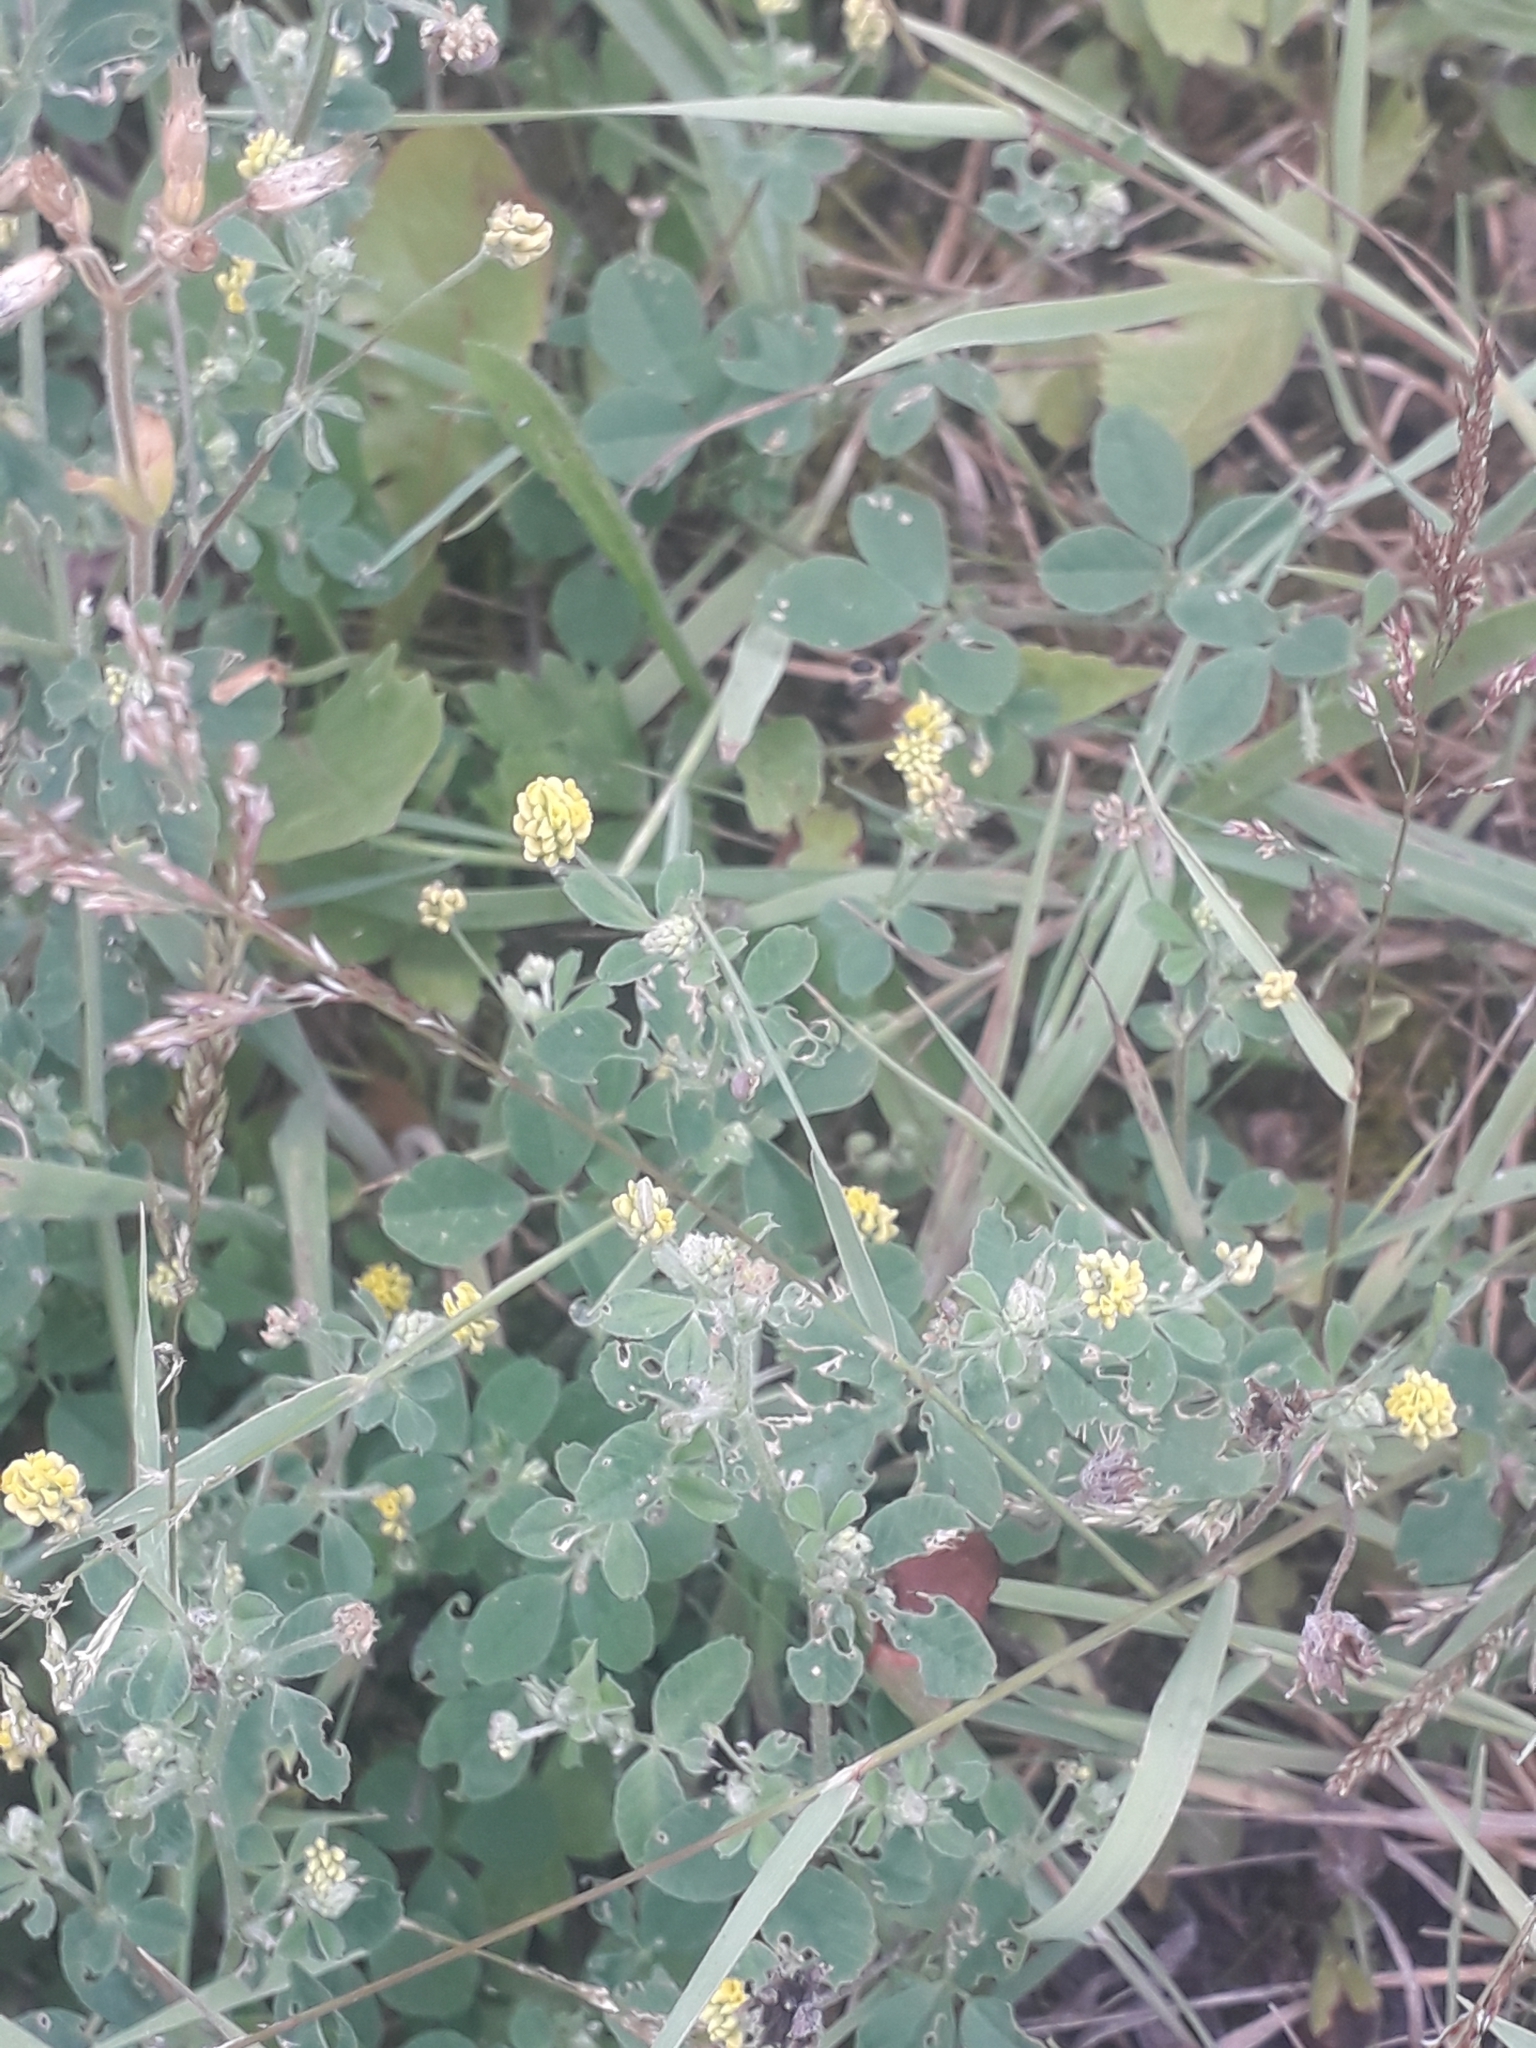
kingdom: Plantae
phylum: Tracheophyta
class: Magnoliopsida
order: Fabales
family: Fabaceae
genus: Medicago
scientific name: Medicago lupulina
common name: Black medick
